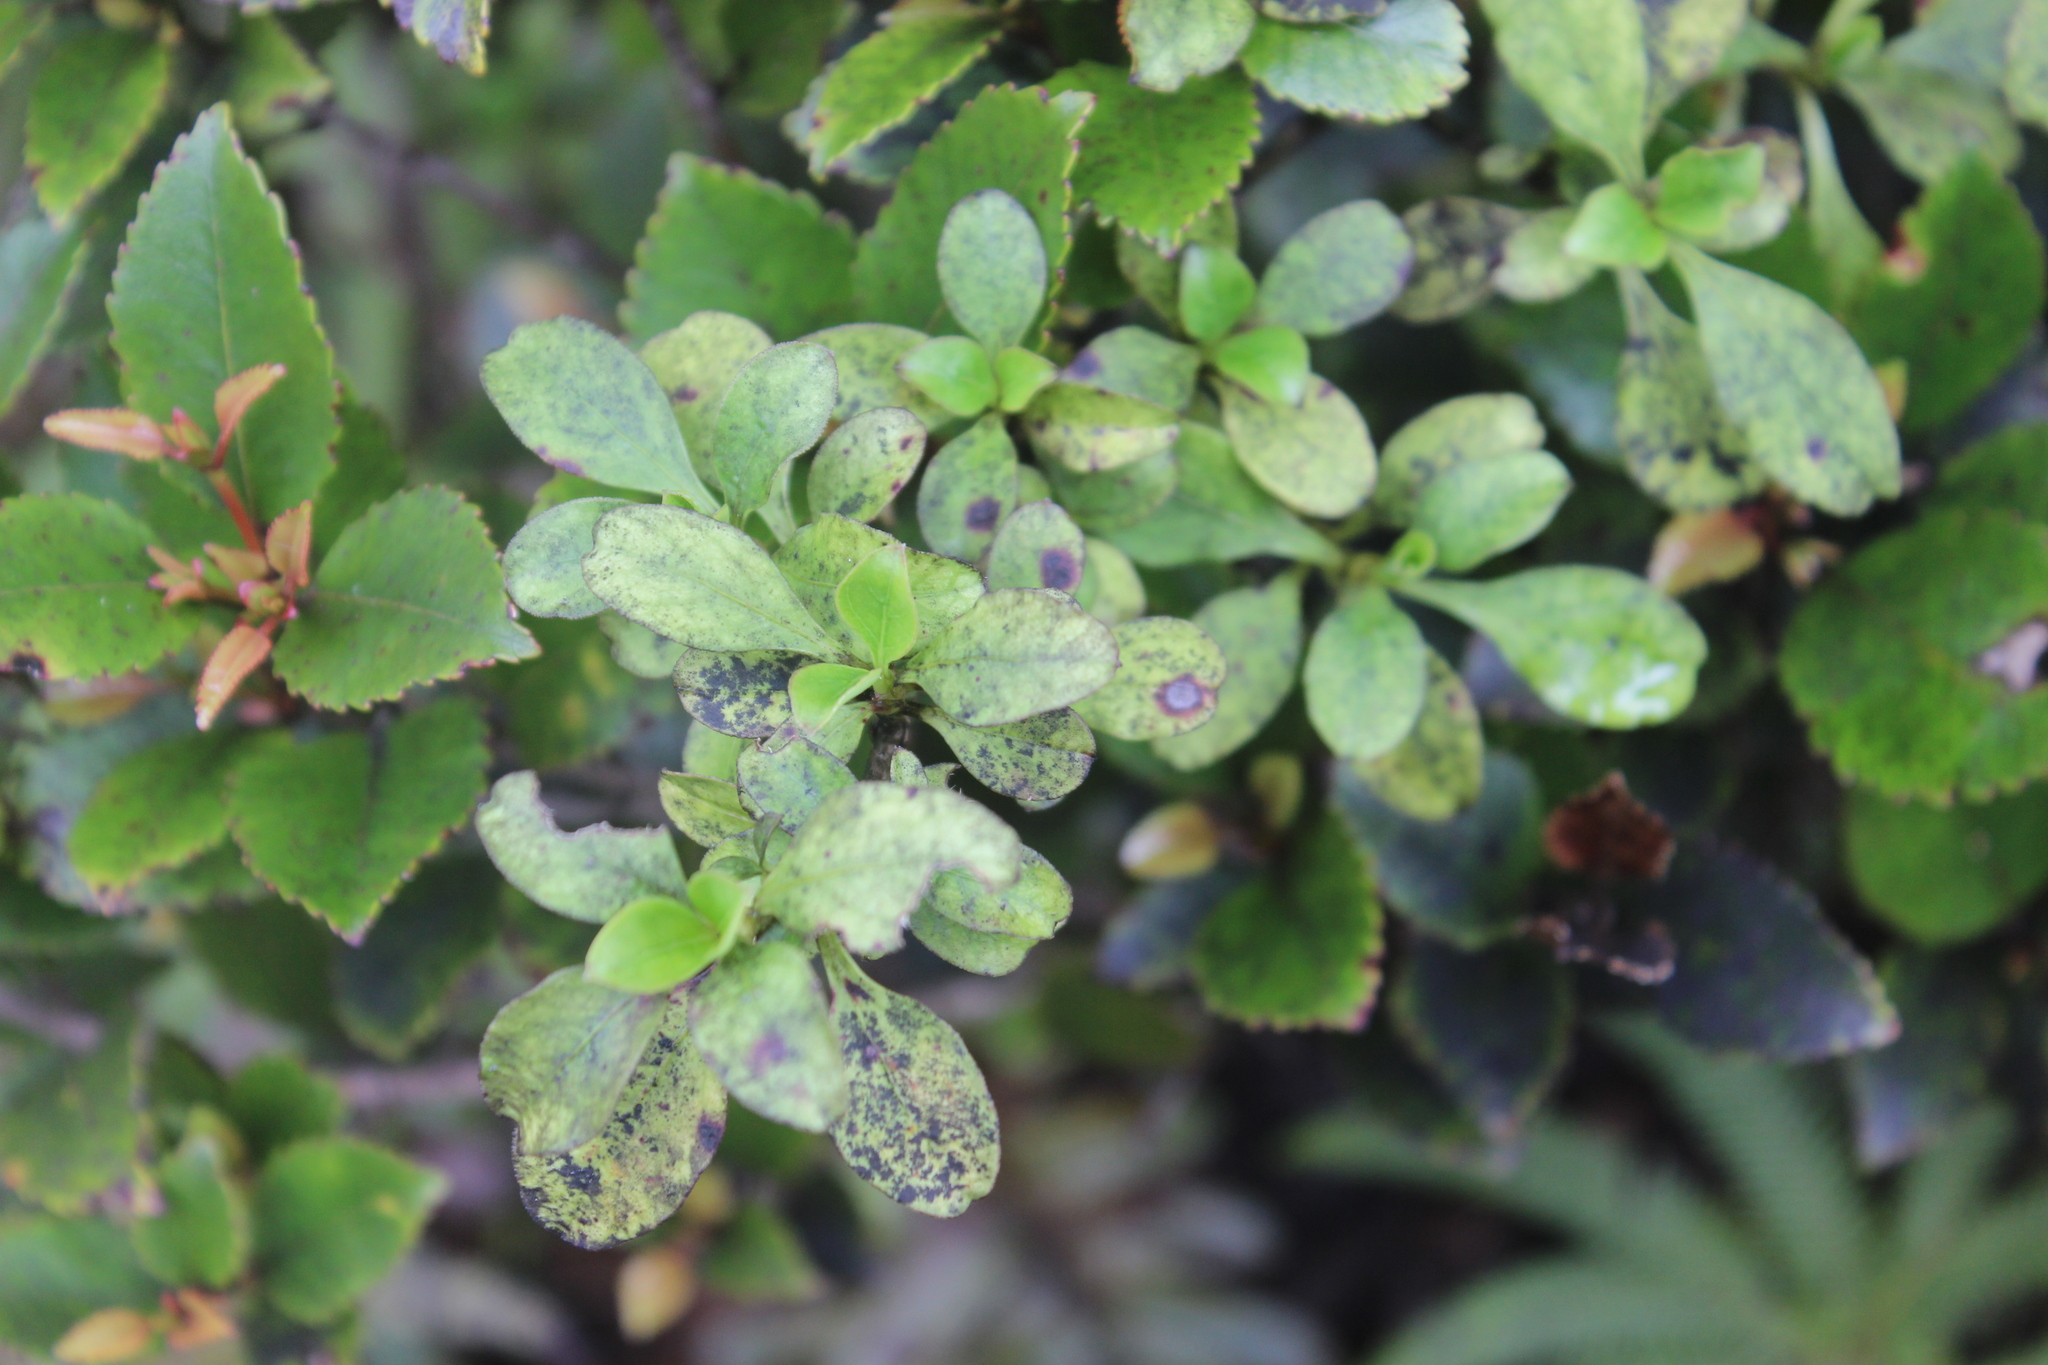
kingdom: Plantae
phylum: Tracheophyta
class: Magnoliopsida
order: Gentianales
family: Rubiaceae
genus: Coprosma
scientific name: Coprosma foetidissima
